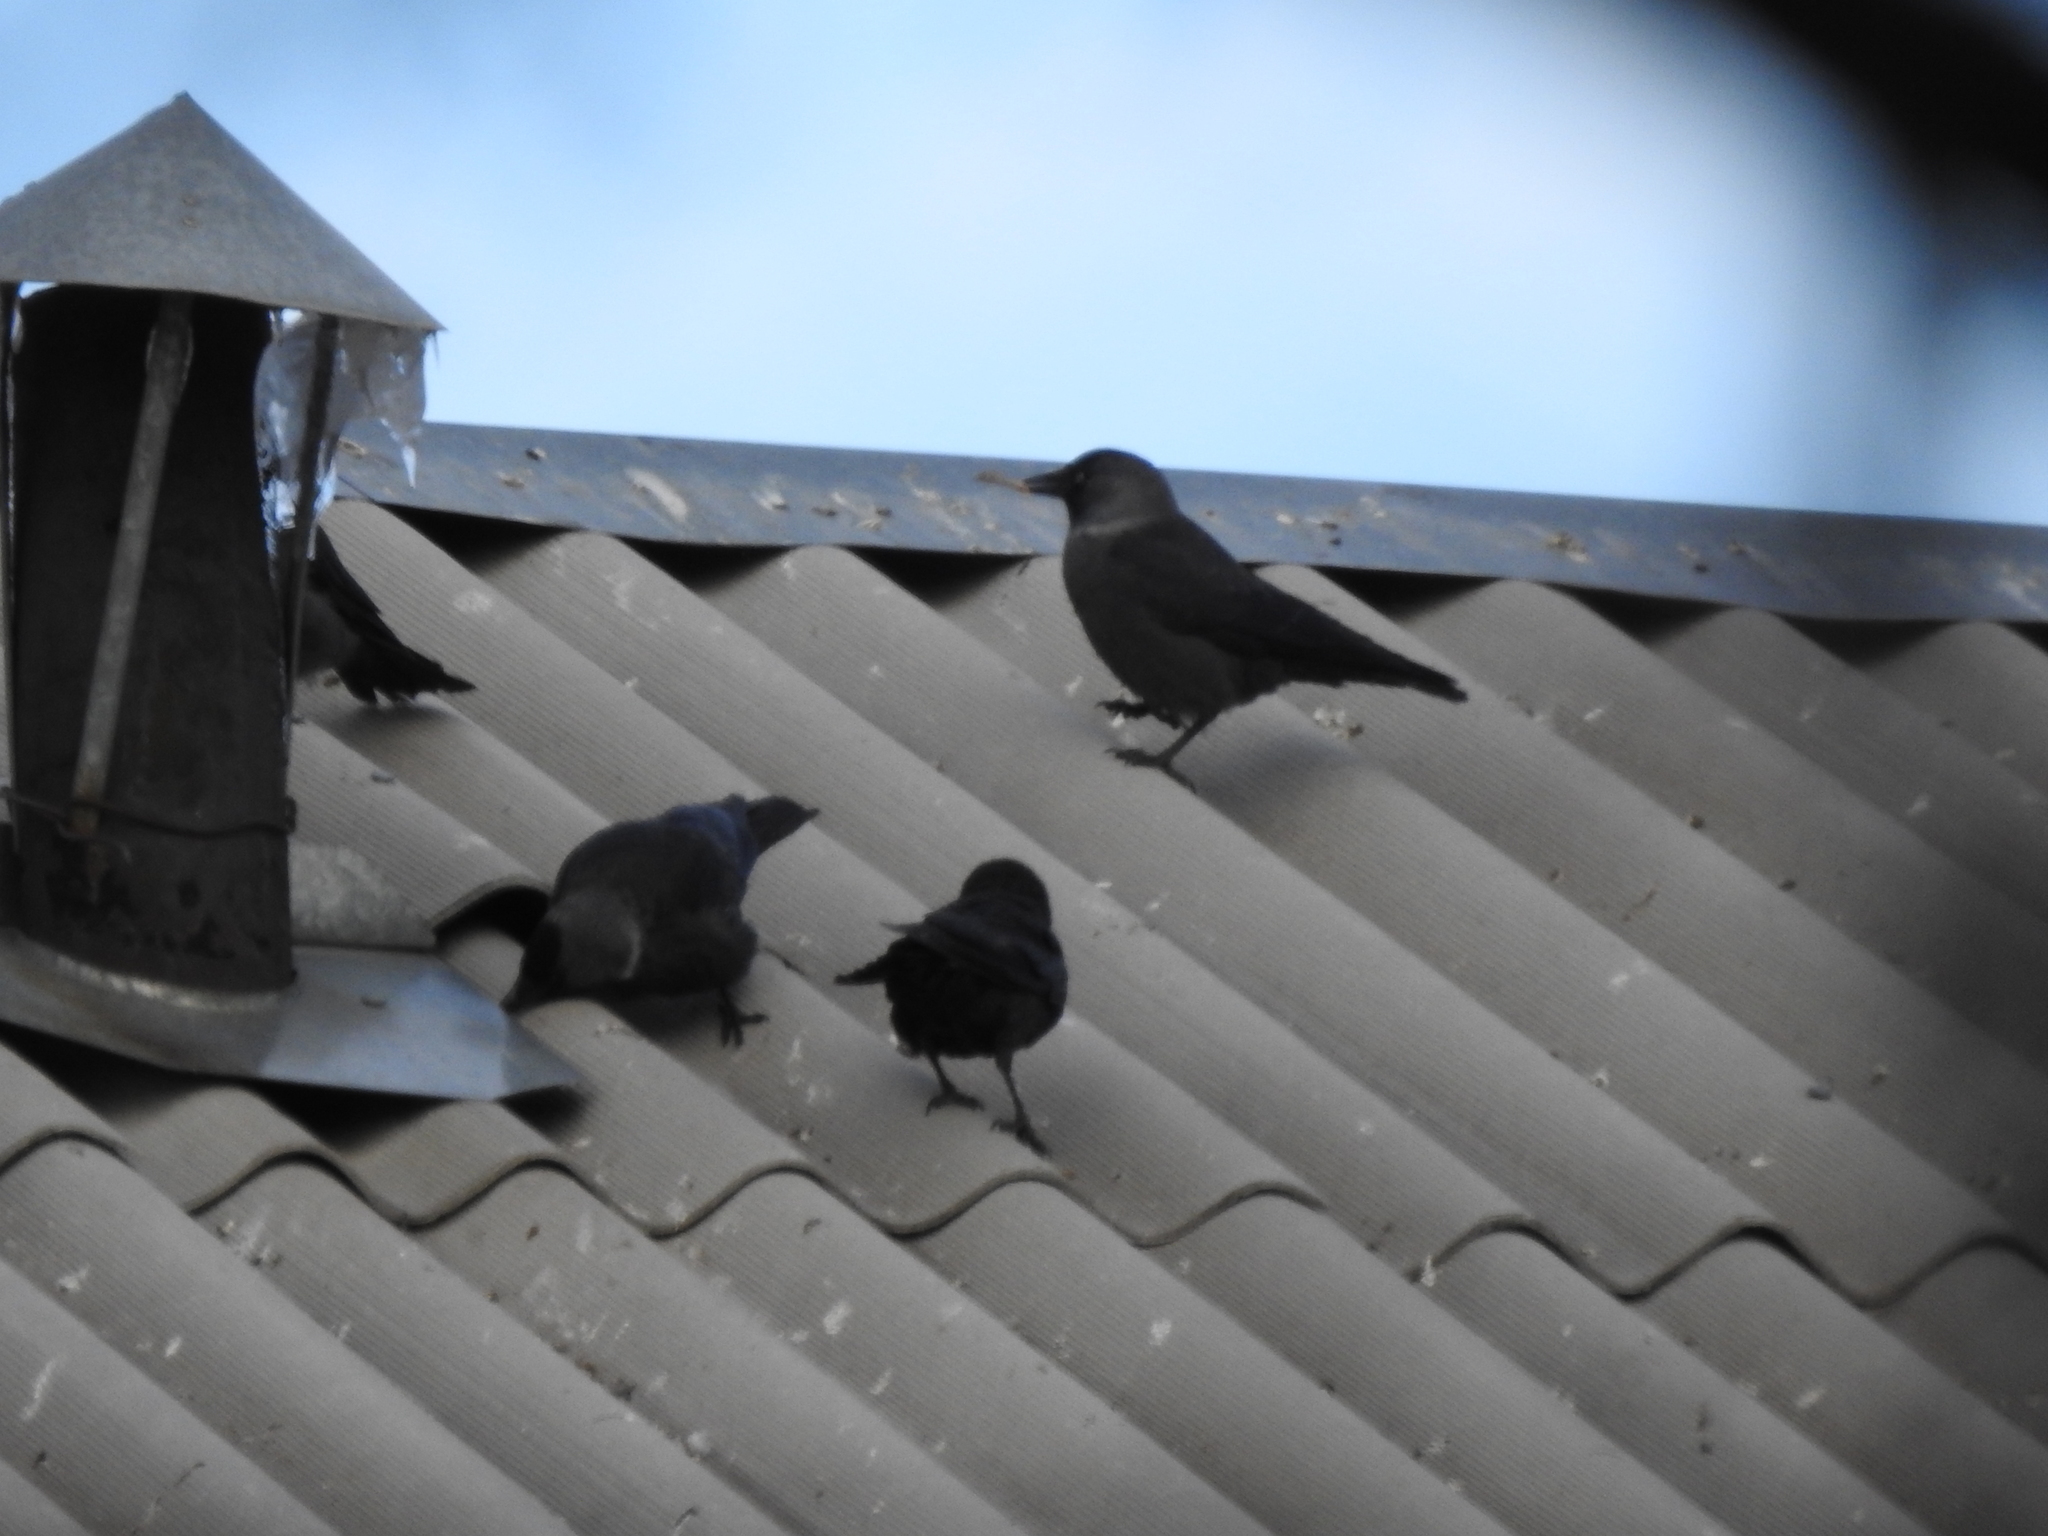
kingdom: Animalia
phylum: Chordata
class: Aves
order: Passeriformes
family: Corvidae
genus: Coloeus
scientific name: Coloeus monedula
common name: Western jackdaw
